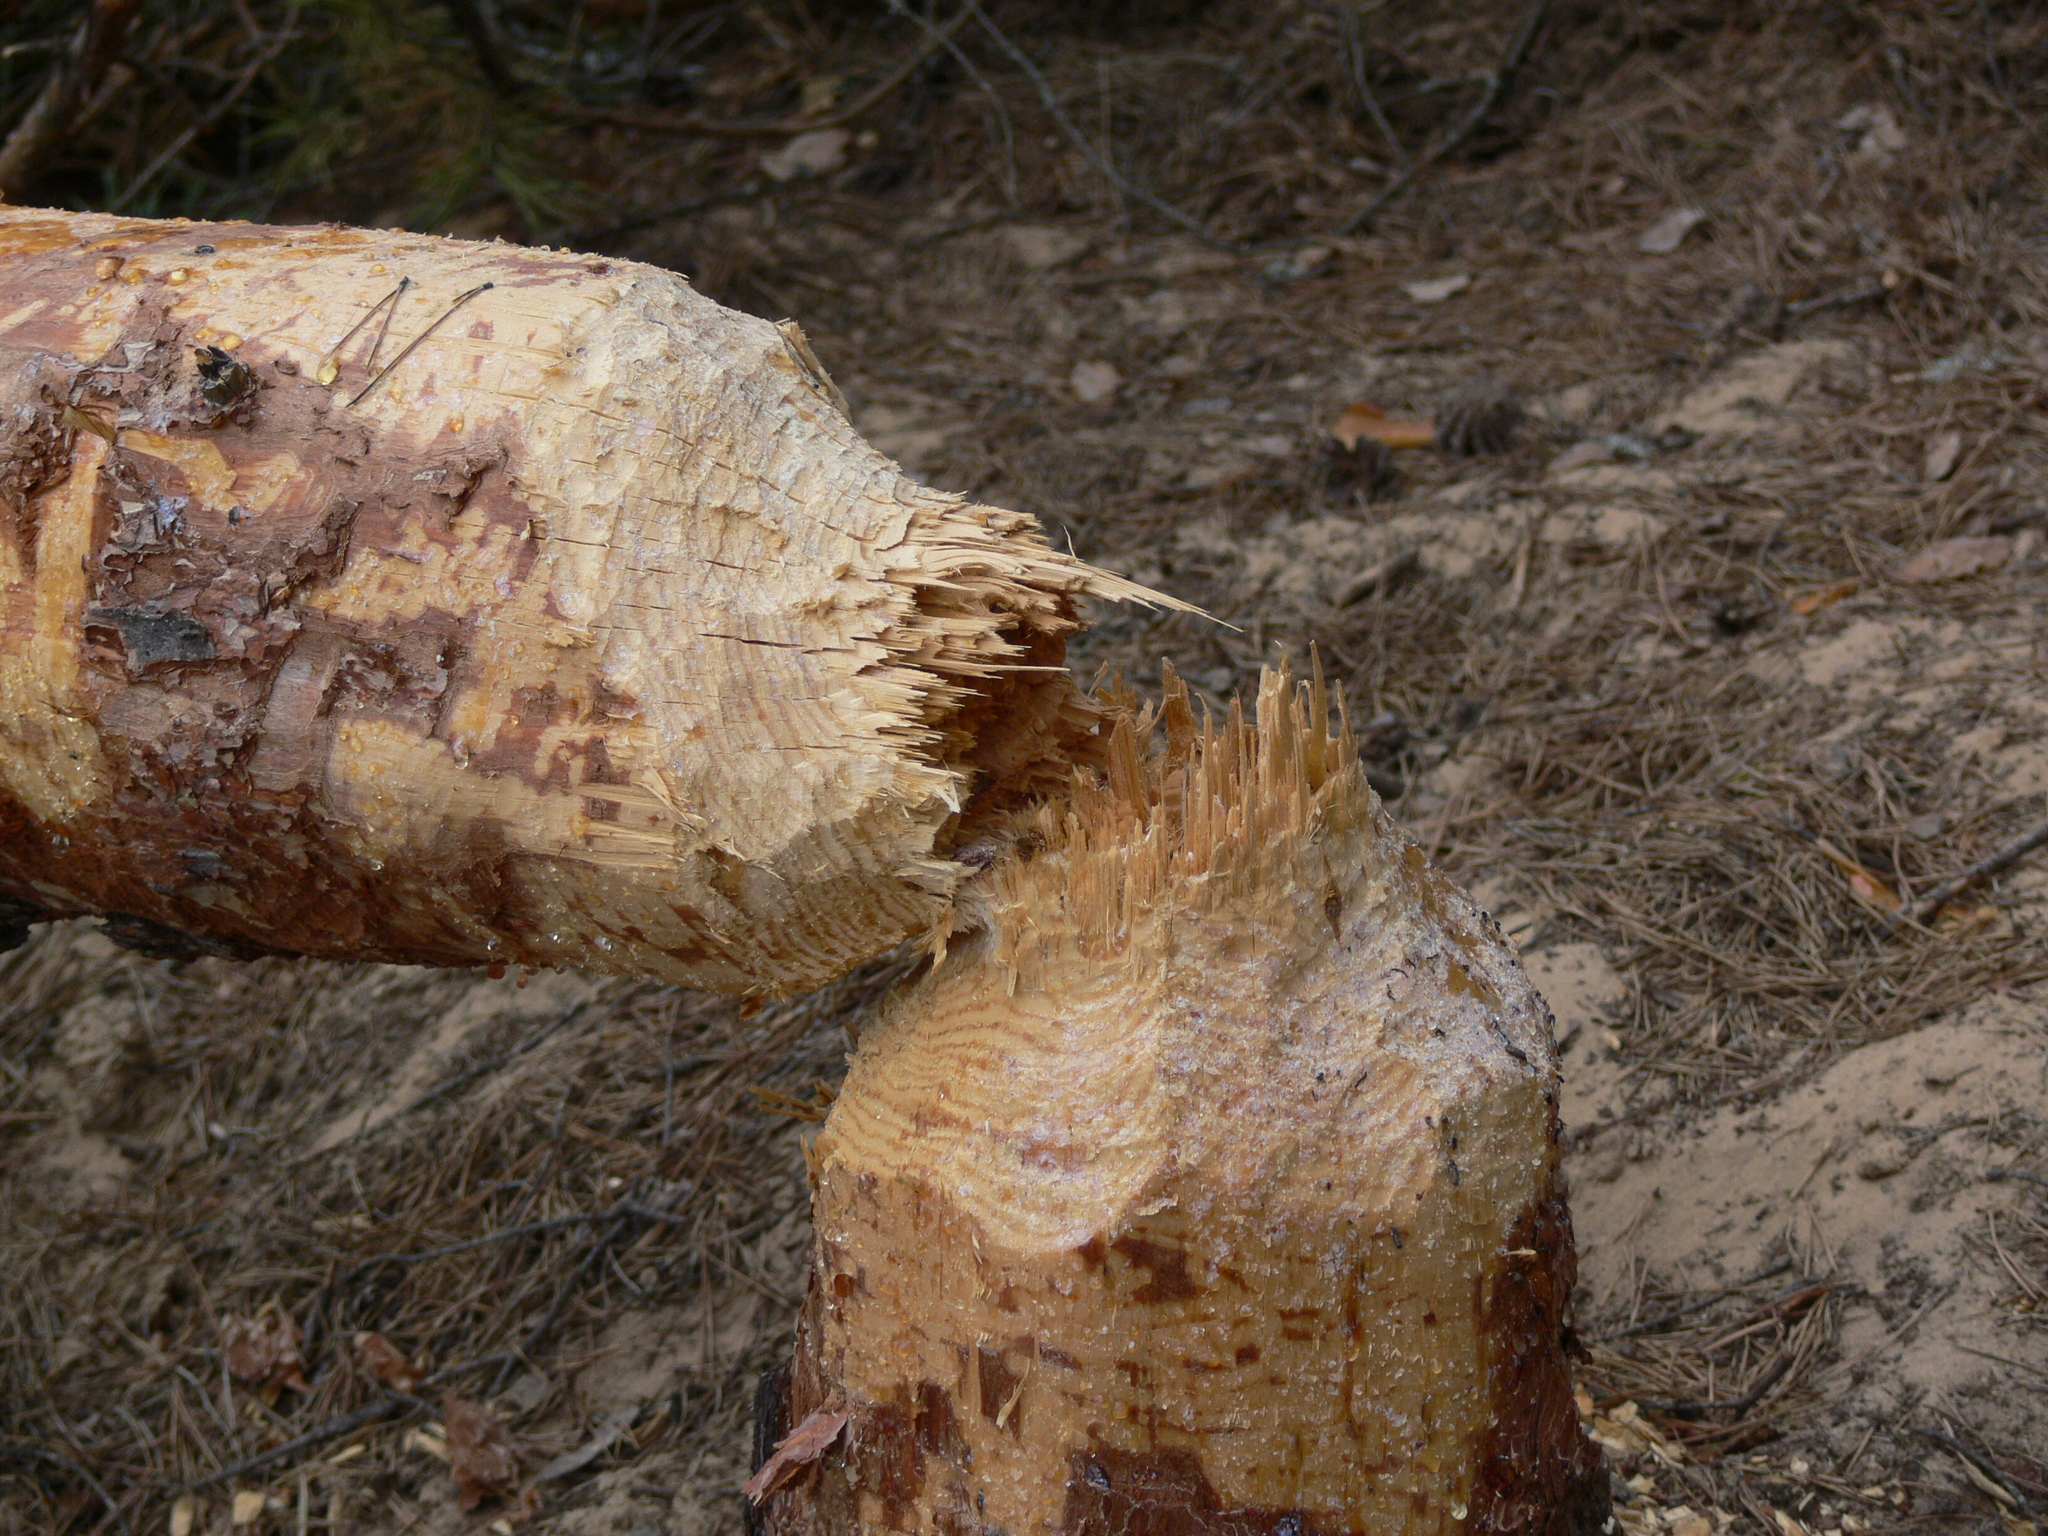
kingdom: Animalia
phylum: Chordata
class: Mammalia
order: Rodentia
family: Castoridae
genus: Castor
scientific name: Castor fiber
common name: Eurasian beaver
